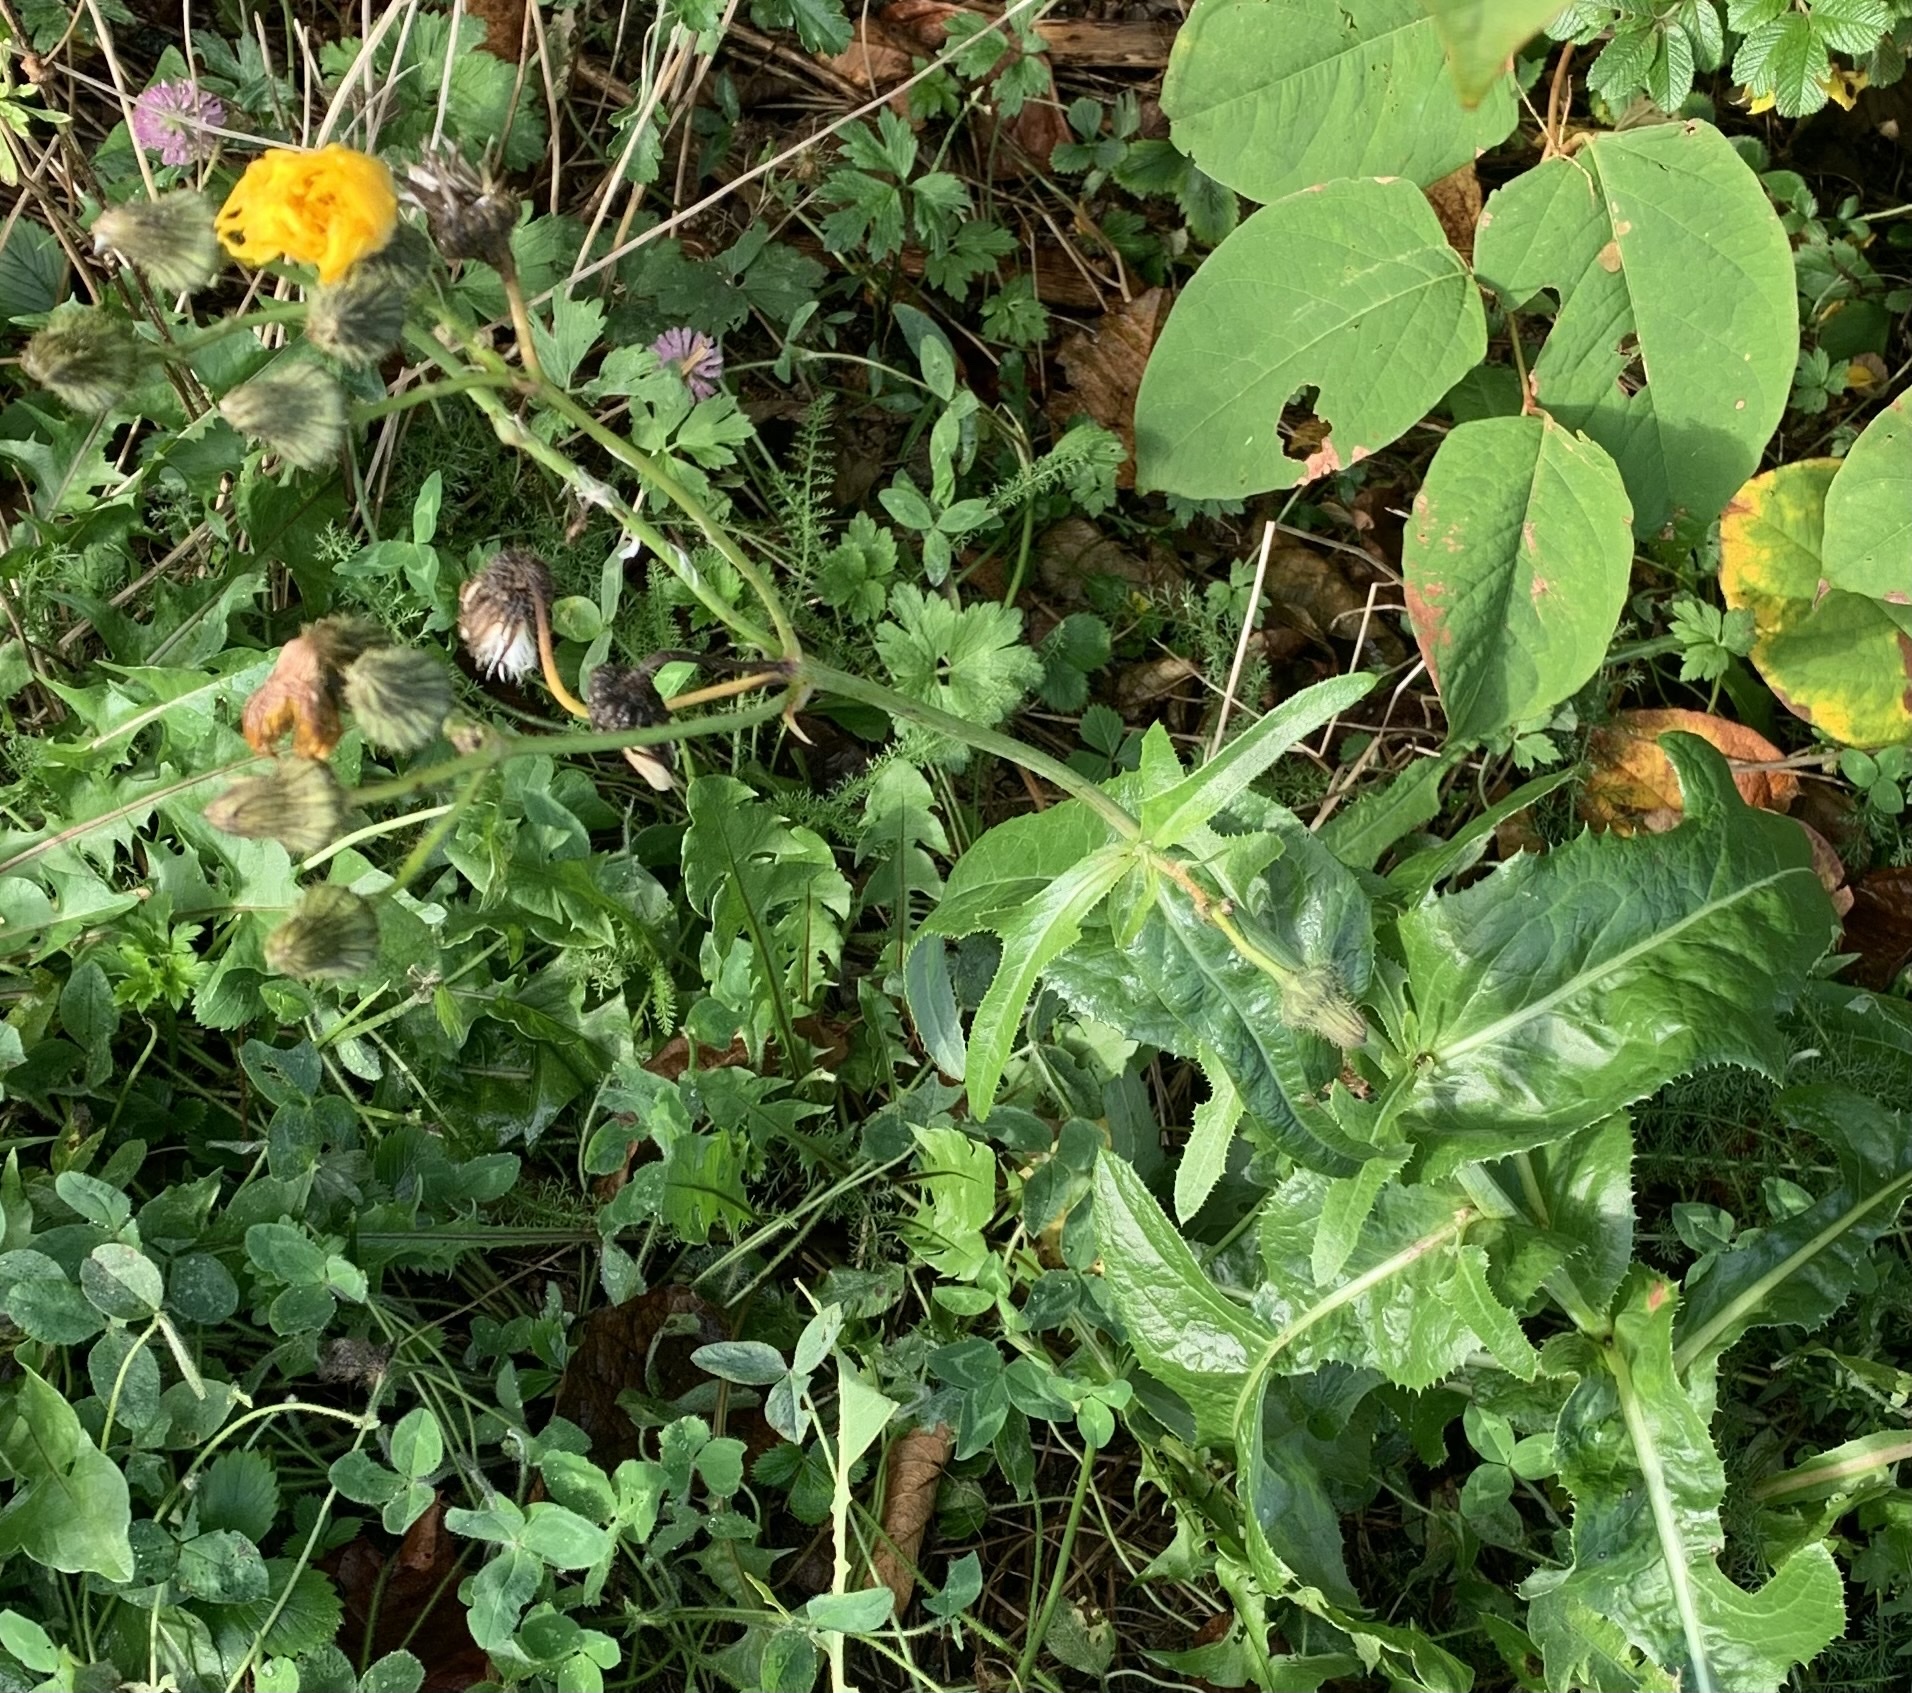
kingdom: Plantae
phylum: Tracheophyta
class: Magnoliopsida
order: Asterales
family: Asteraceae
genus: Sonchus
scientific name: Sonchus arvensis
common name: Perennial sow-thistle
